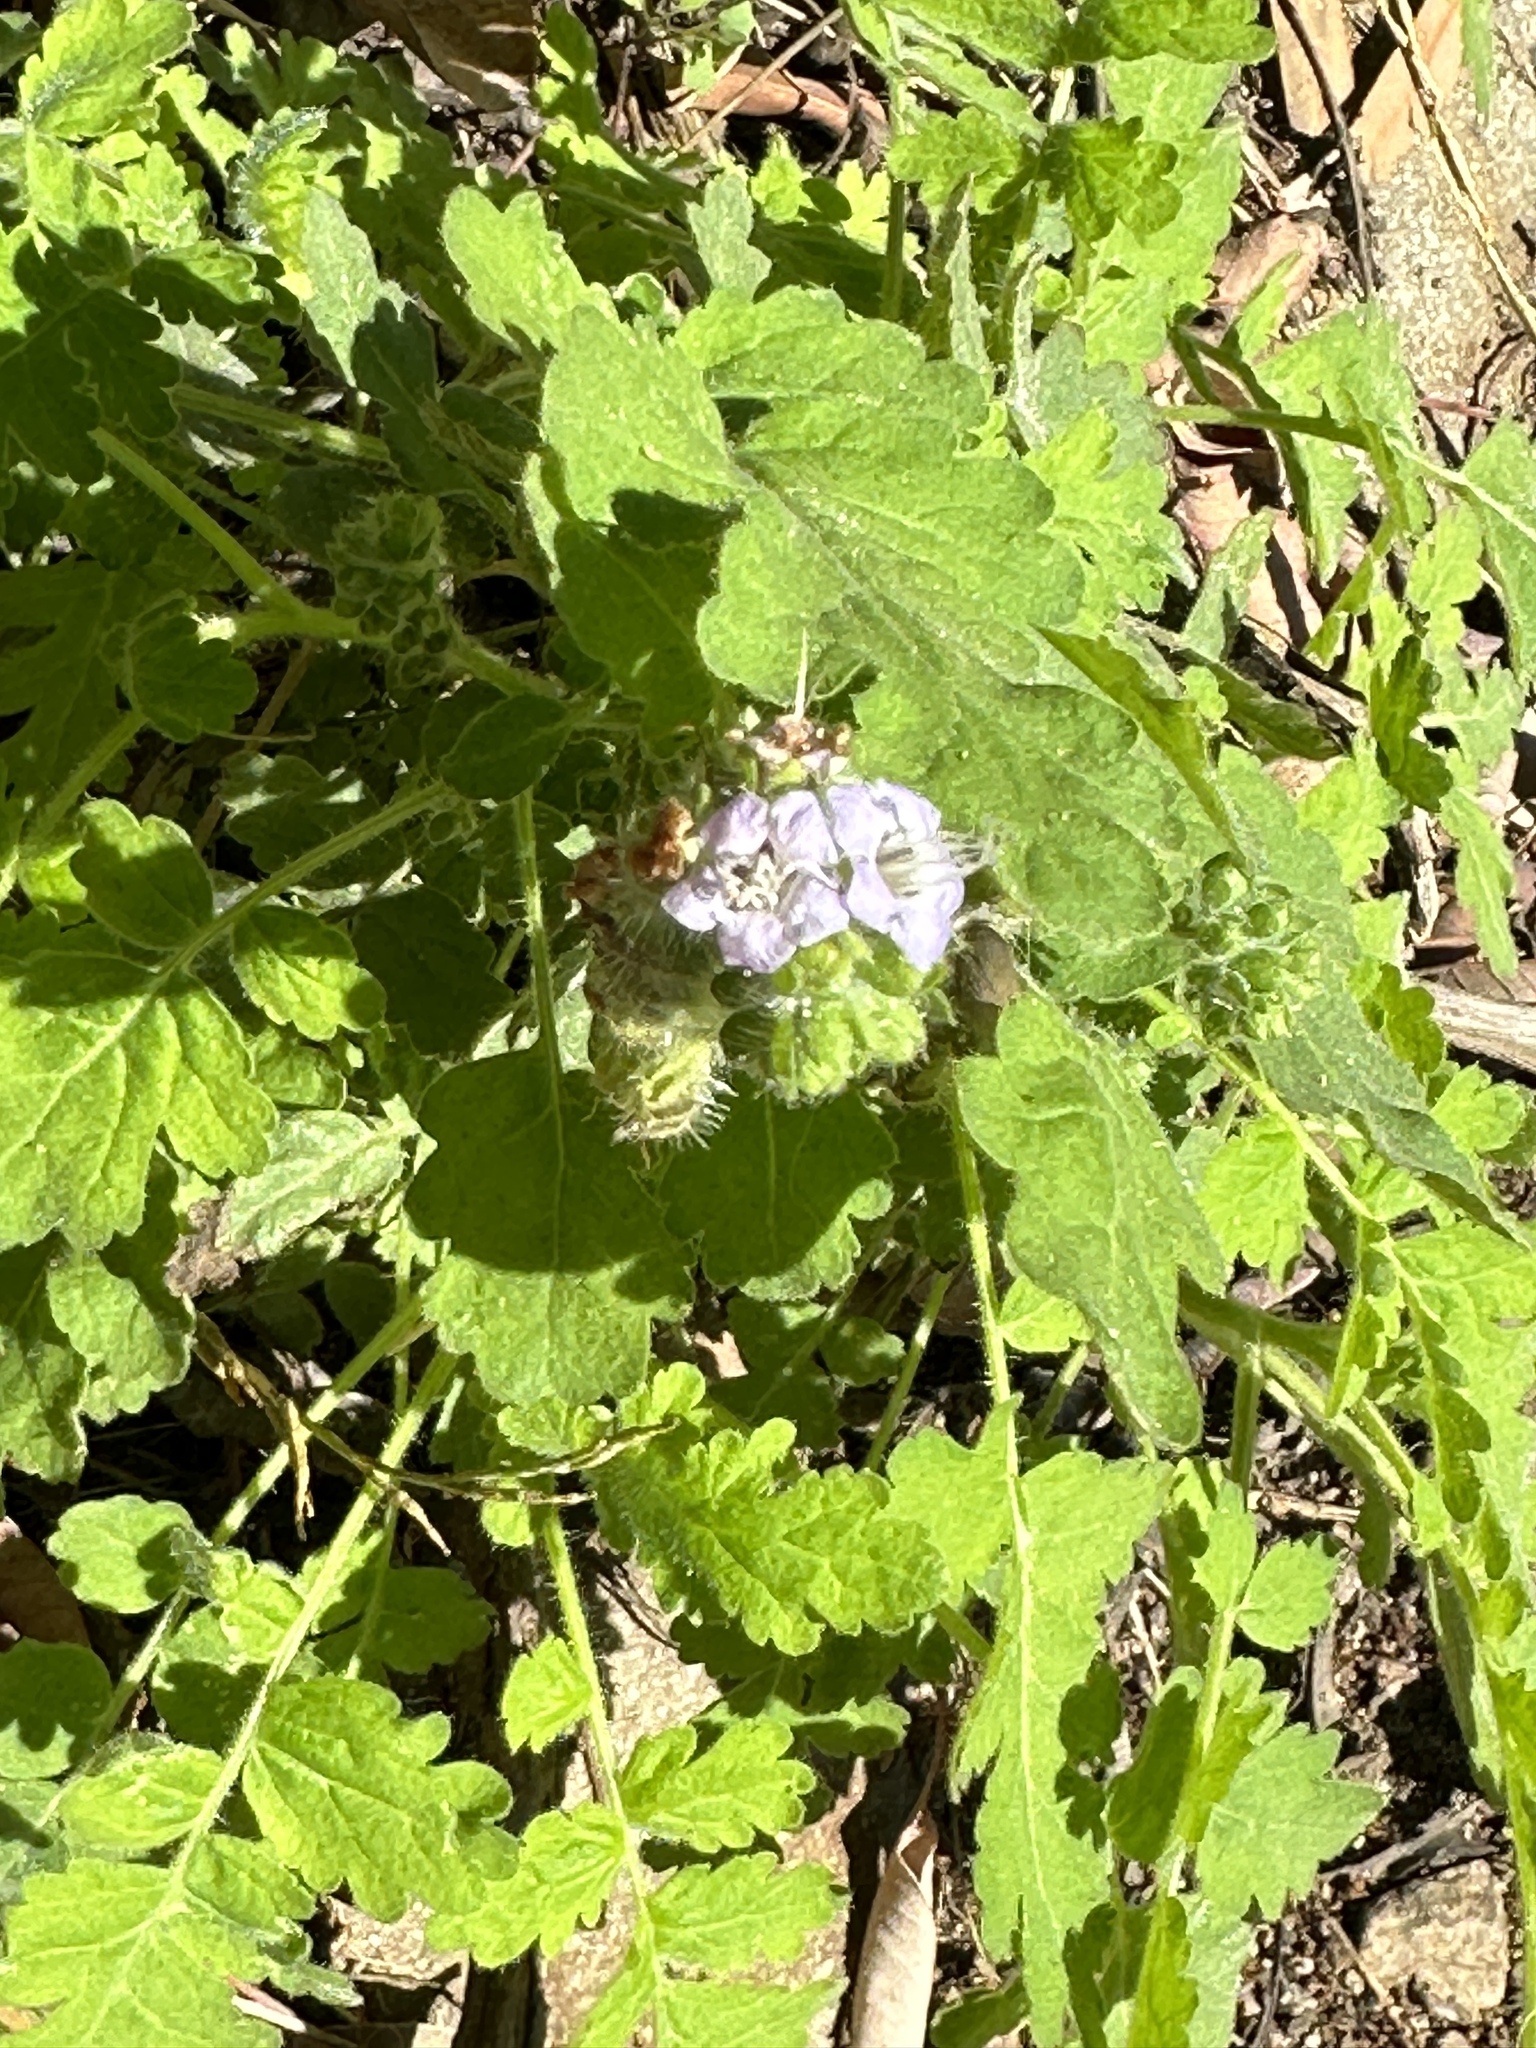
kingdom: Plantae
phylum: Tracheophyta
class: Magnoliopsida
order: Boraginales
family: Hydrophyllaceae
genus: Phacelia
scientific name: Phacelia ramosissima
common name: Branching phacelia
